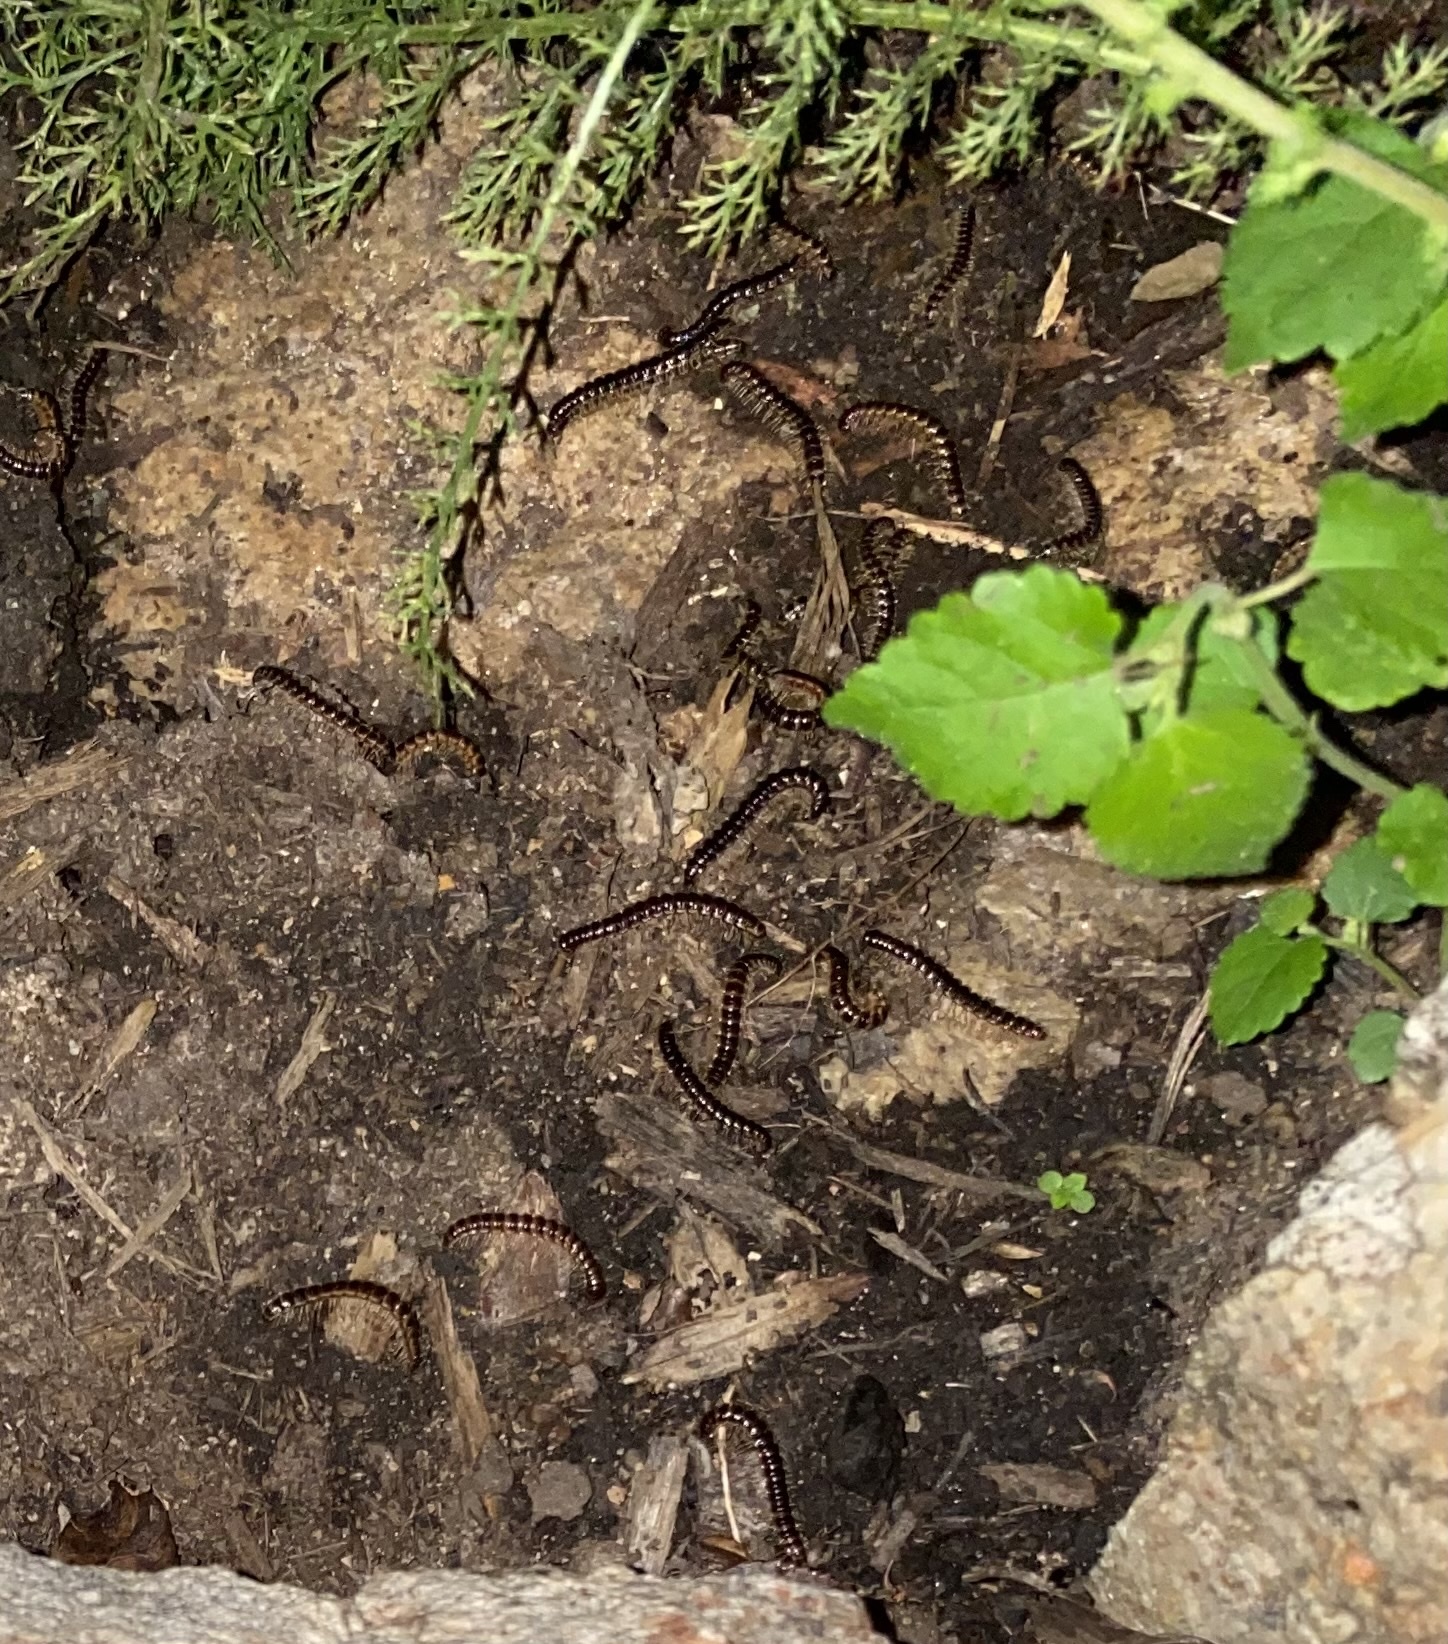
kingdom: Animalia
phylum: Arthropoda
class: Diplopoda
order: Polydesmida
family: Paradoxosomatidae
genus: Oxidus
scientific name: Oxidus gracilis
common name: Greenhouse millipede
